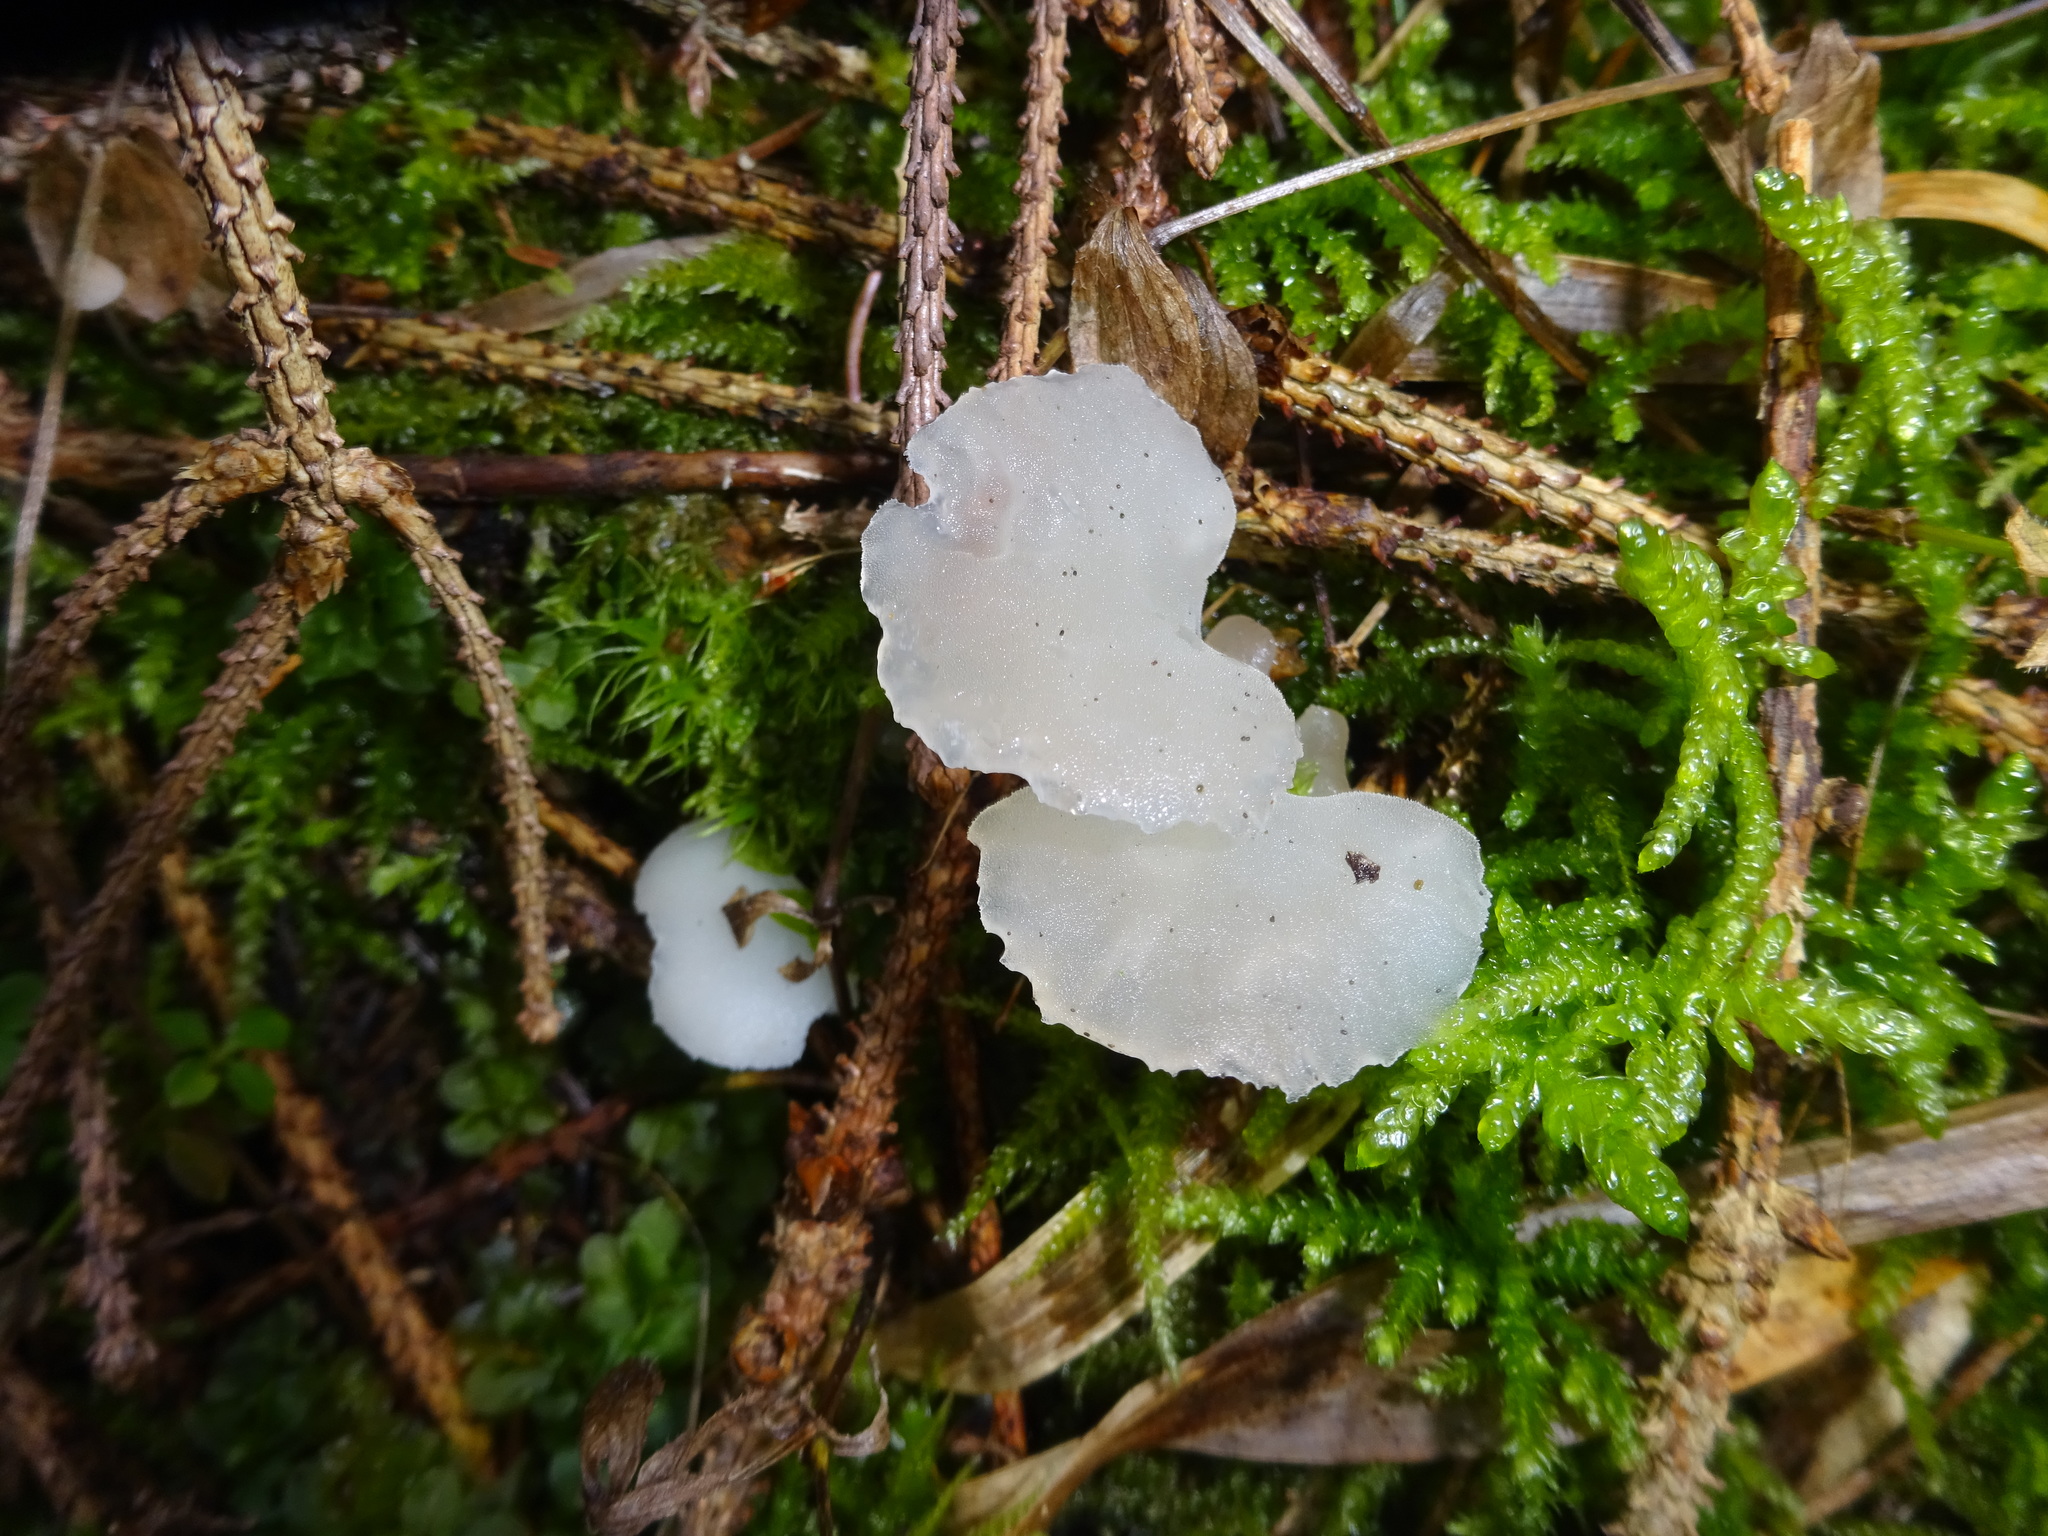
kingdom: Fungi
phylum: Basidiomycota
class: Agaricomycetes
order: Auriculariales
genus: Pseudohydnum
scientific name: Pseudohydnum gelatinosum
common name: Jelly tongue
